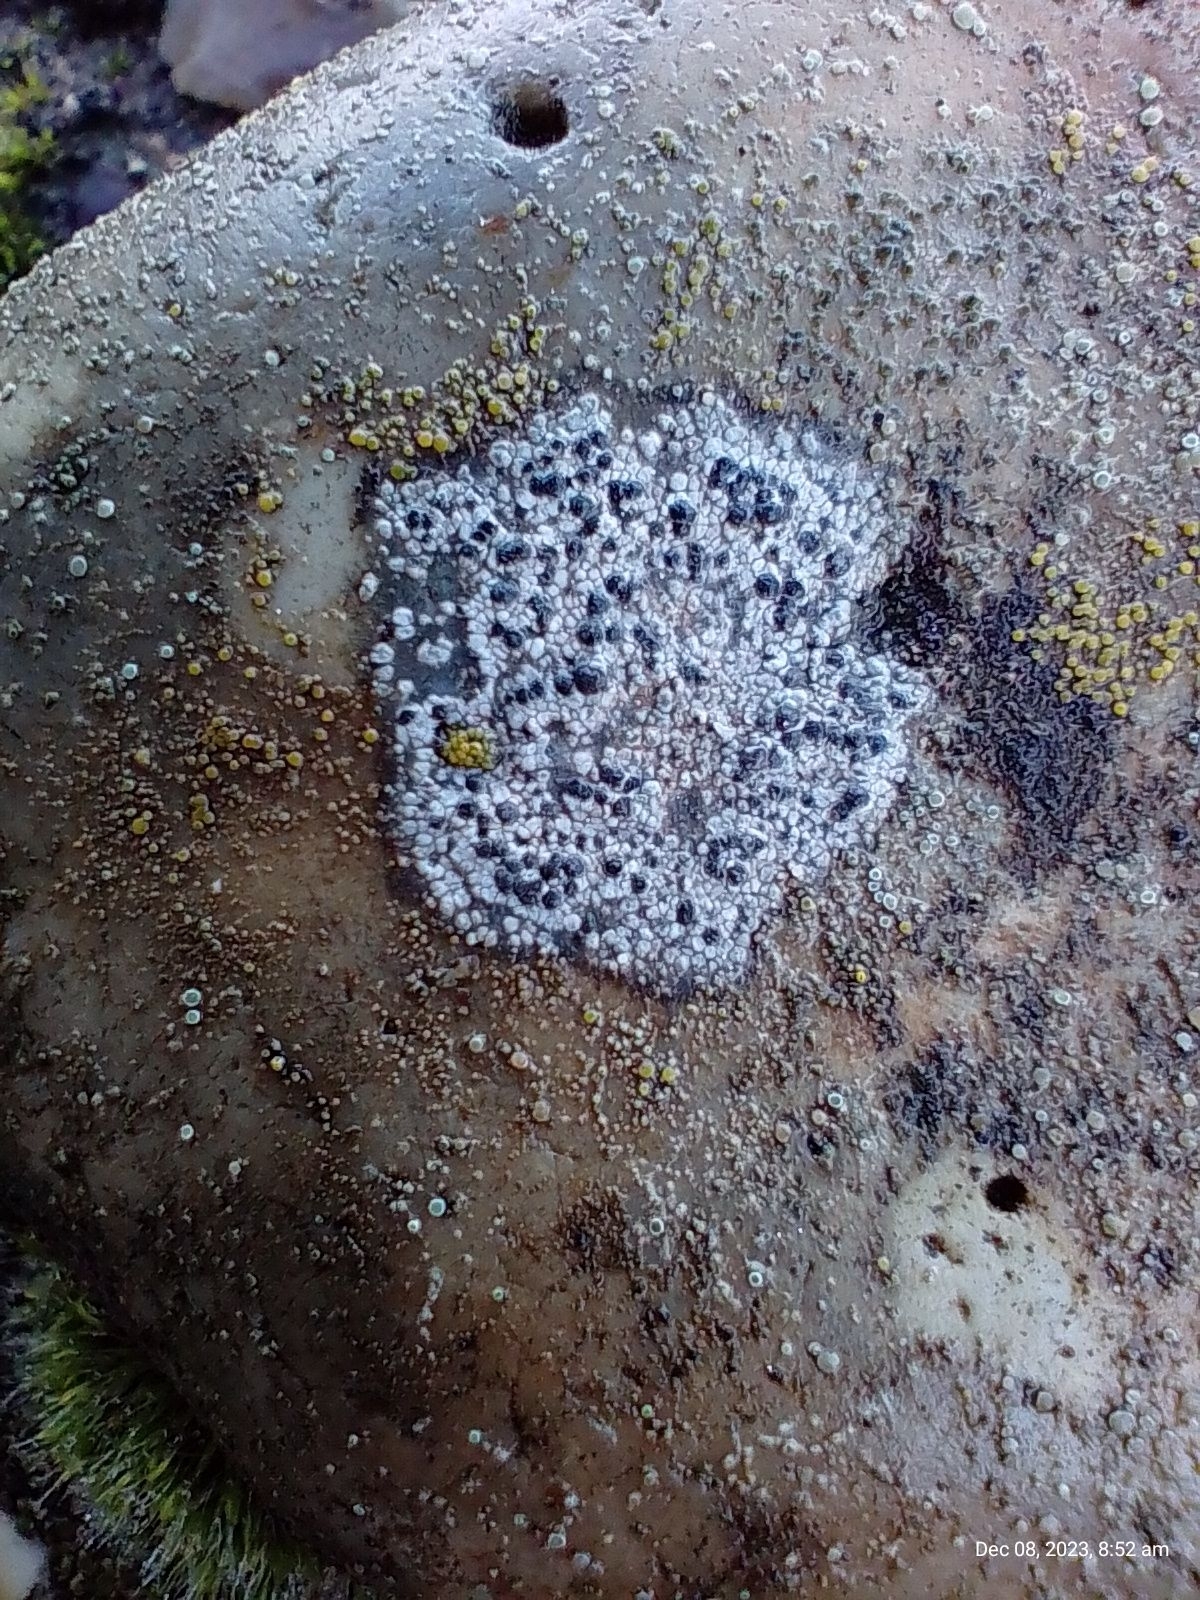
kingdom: Fungi
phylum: Ascomycota
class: Lecanoromycetes
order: Lecanorales
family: Lecanoraceae
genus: Lecidella
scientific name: Lecidella stigmatea
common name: Limestone disc lichen
